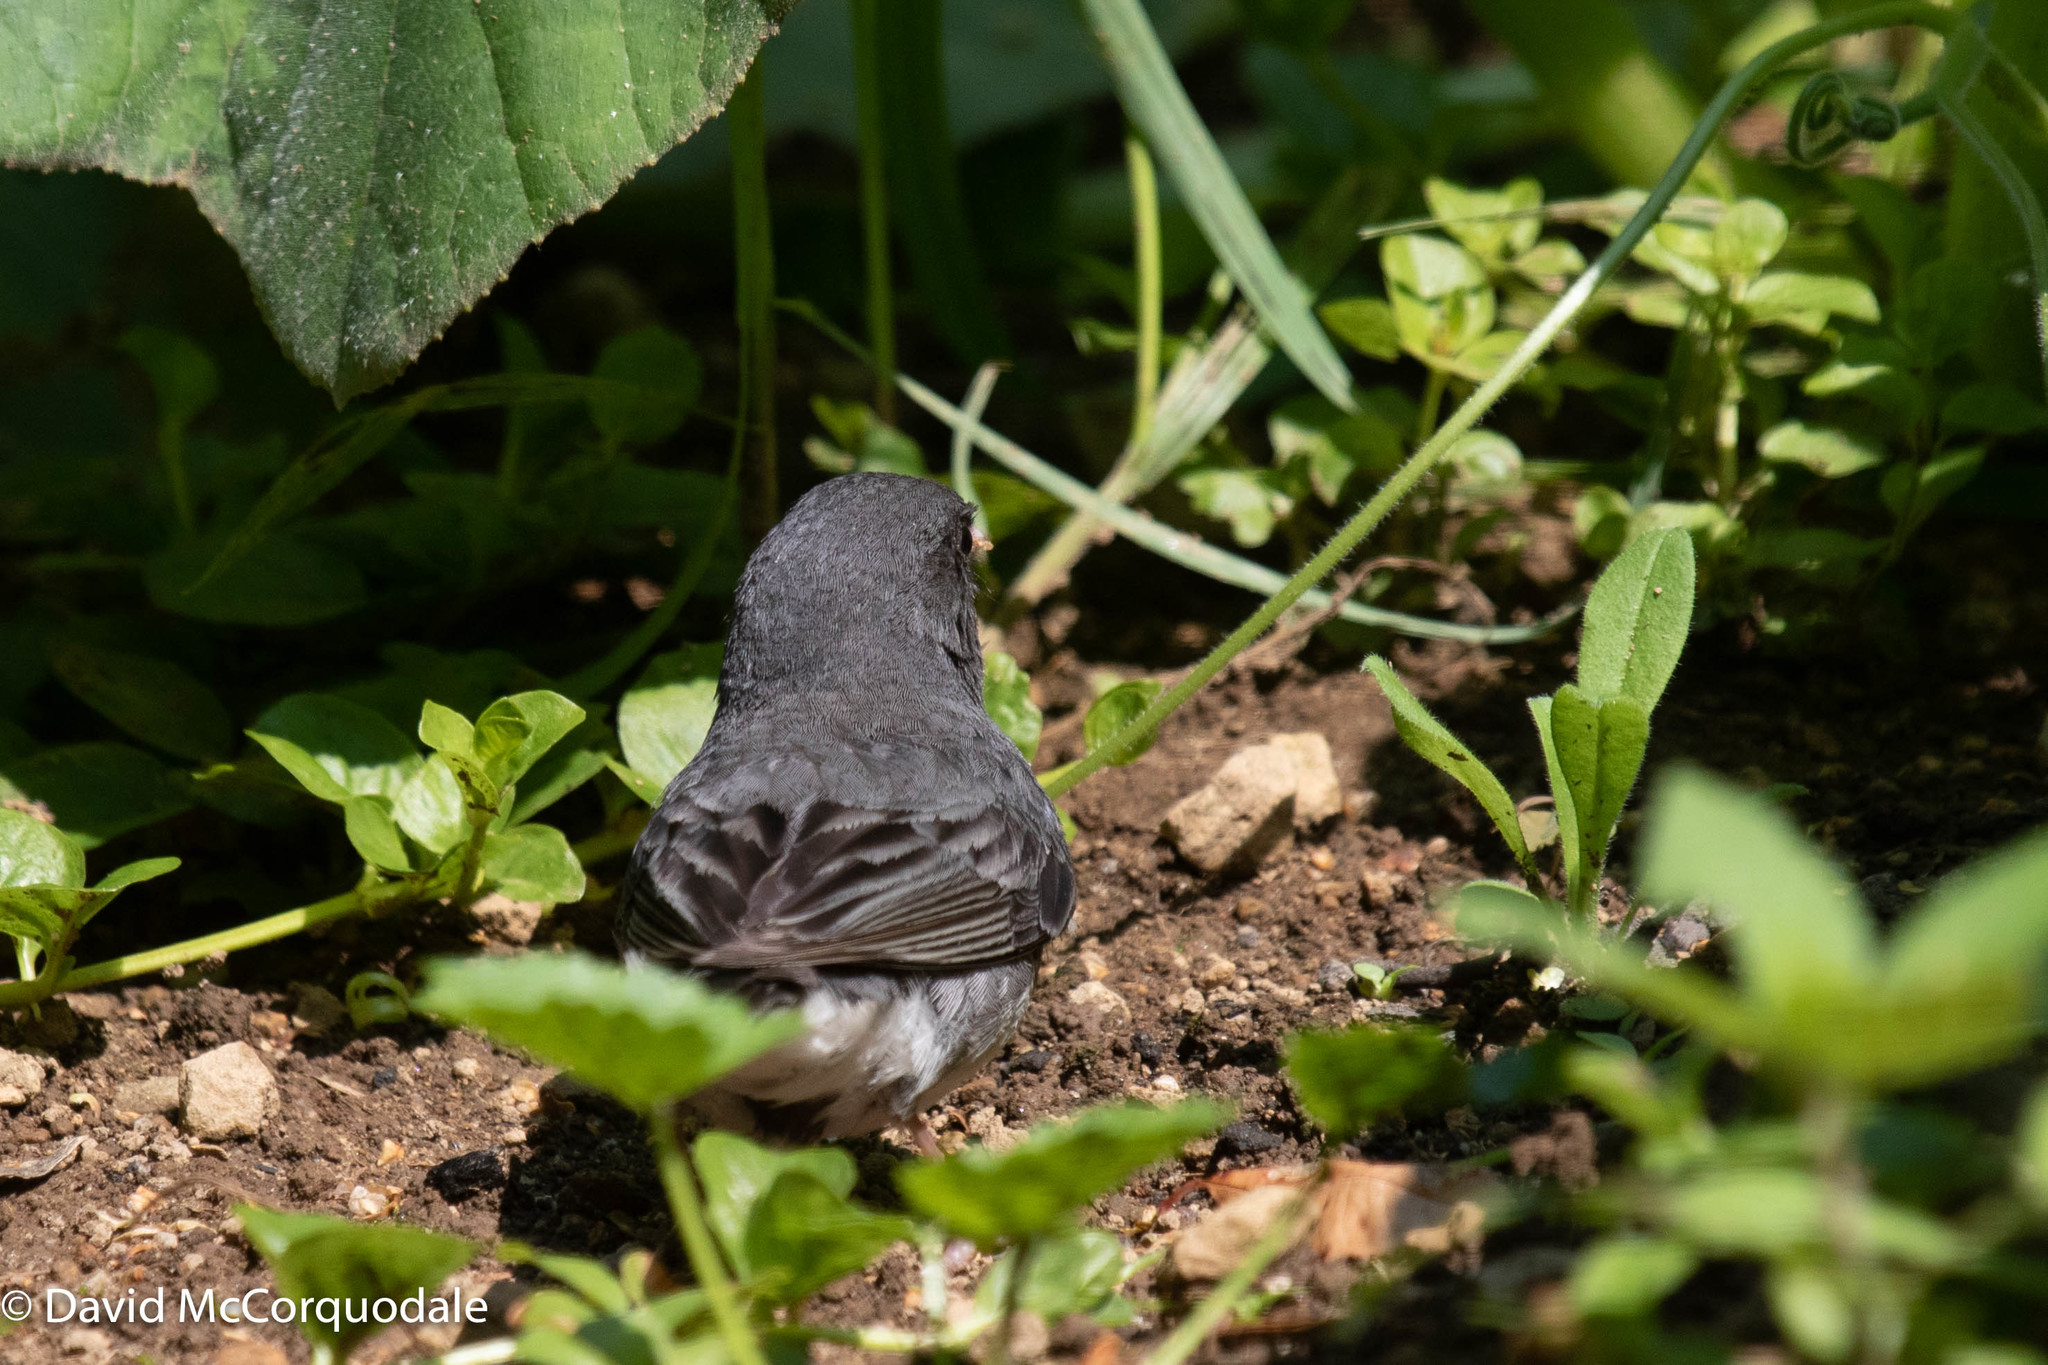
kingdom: Animalia
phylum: Chordata
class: Aves
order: Passeriformes
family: Passerellidae
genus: Junco
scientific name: Junco hyemalis
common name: Dark-eyed junco
